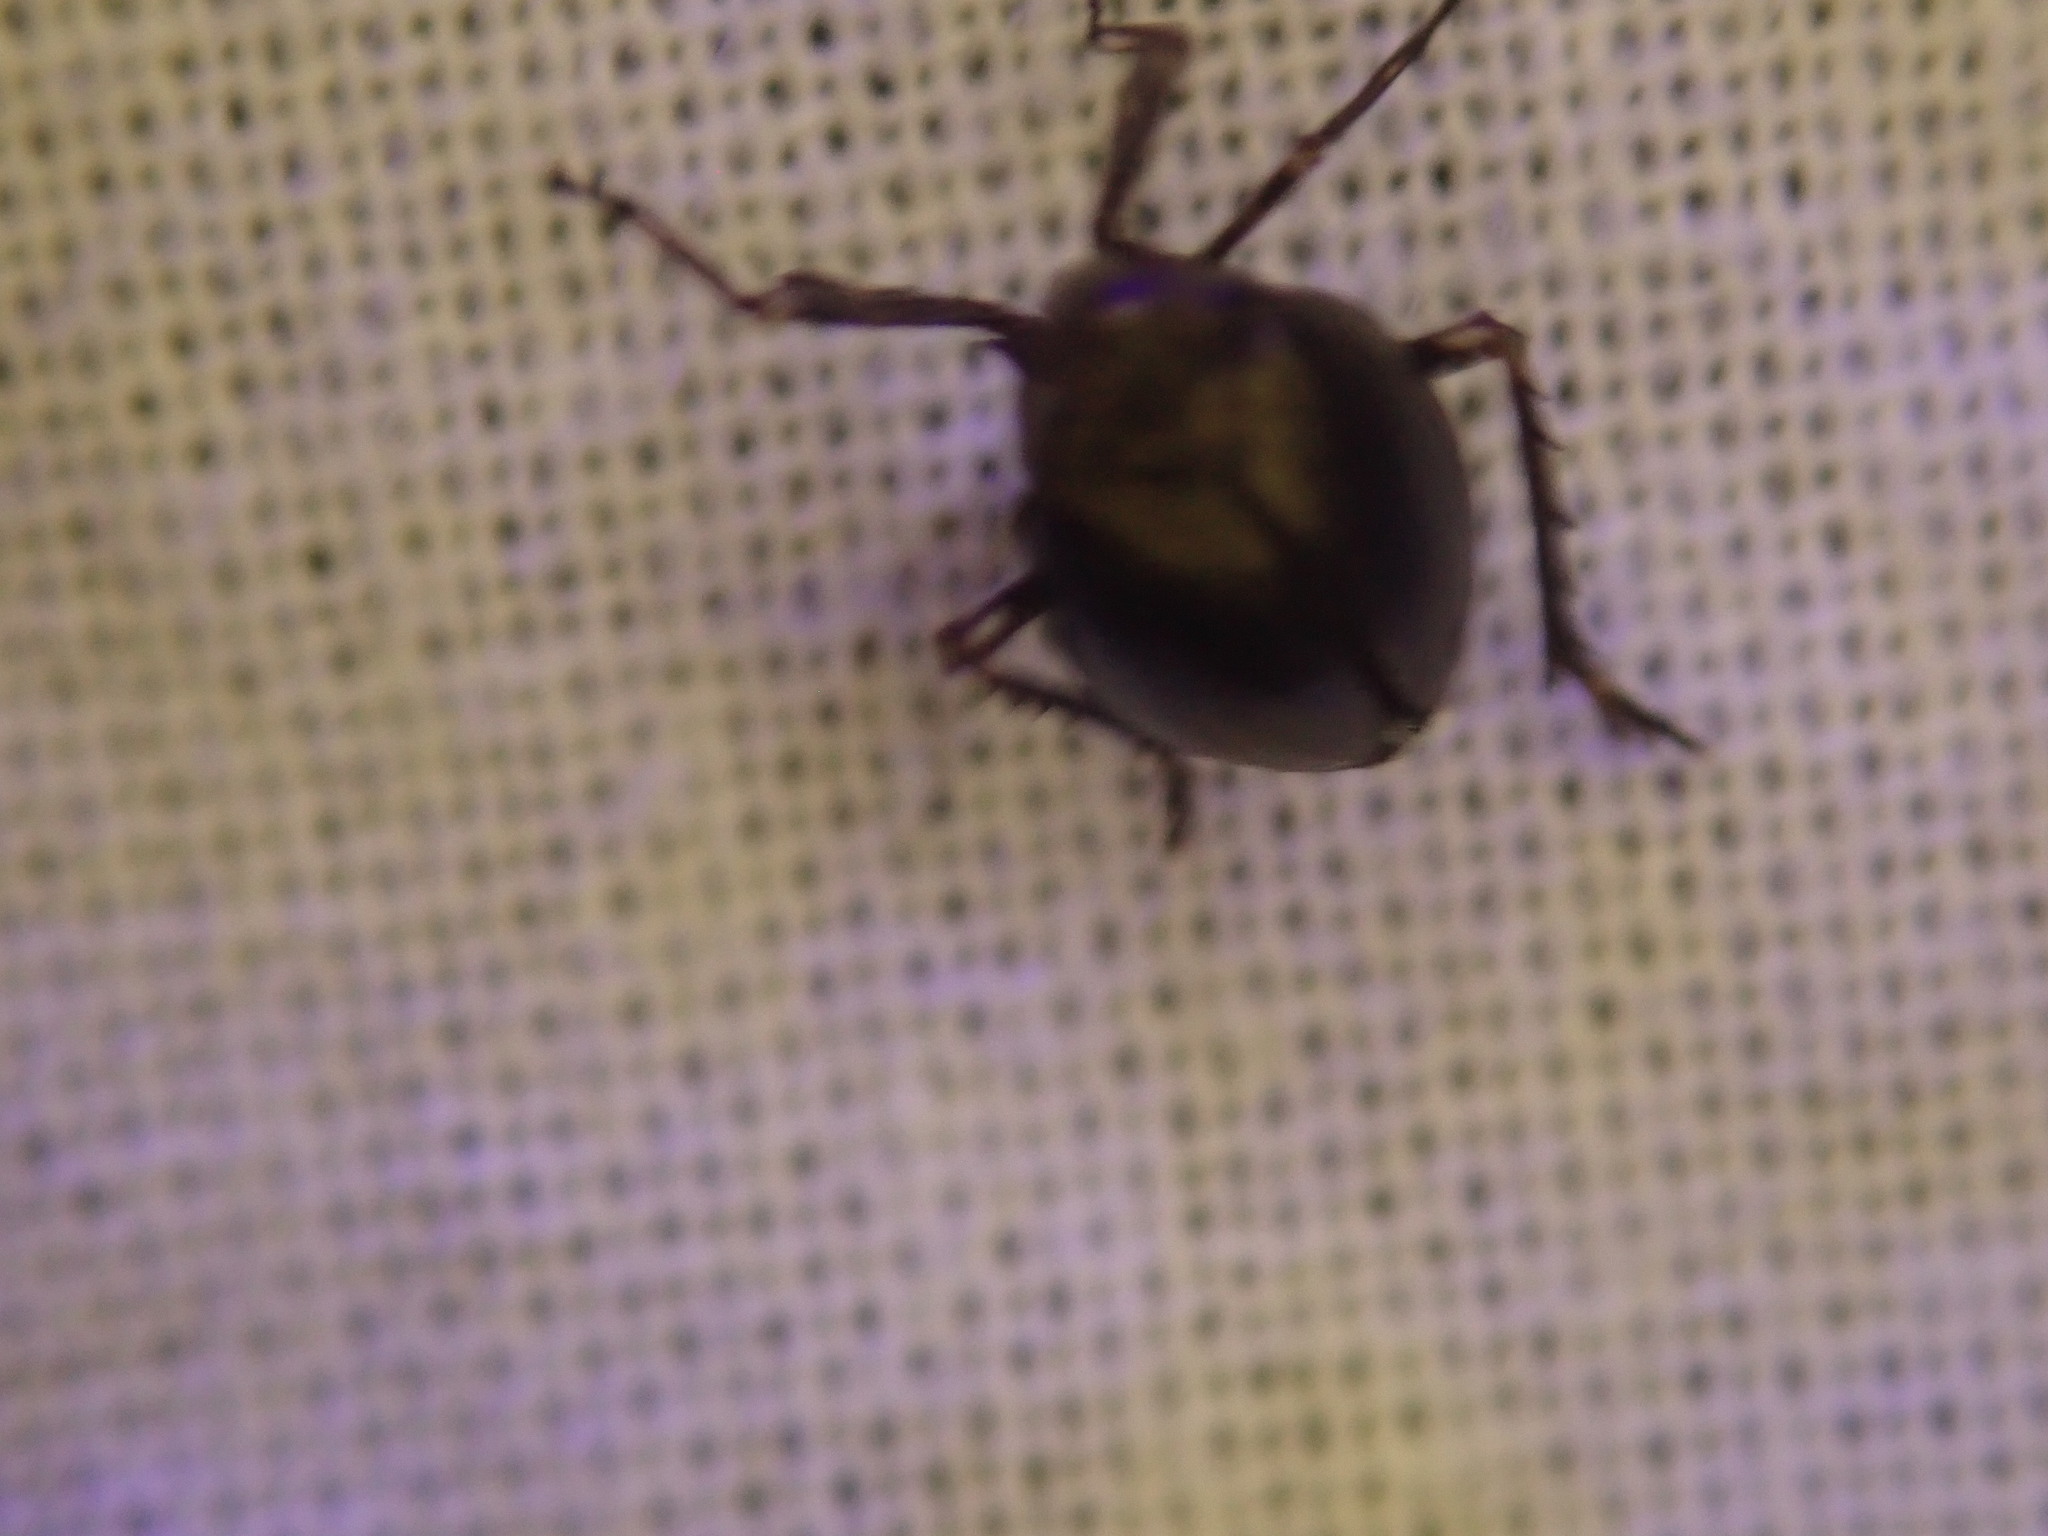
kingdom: Animalia
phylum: Arthropoda
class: Insecta
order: Hemiptera
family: Achilidae
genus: Isodaemon
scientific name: Isodaemon orontes
